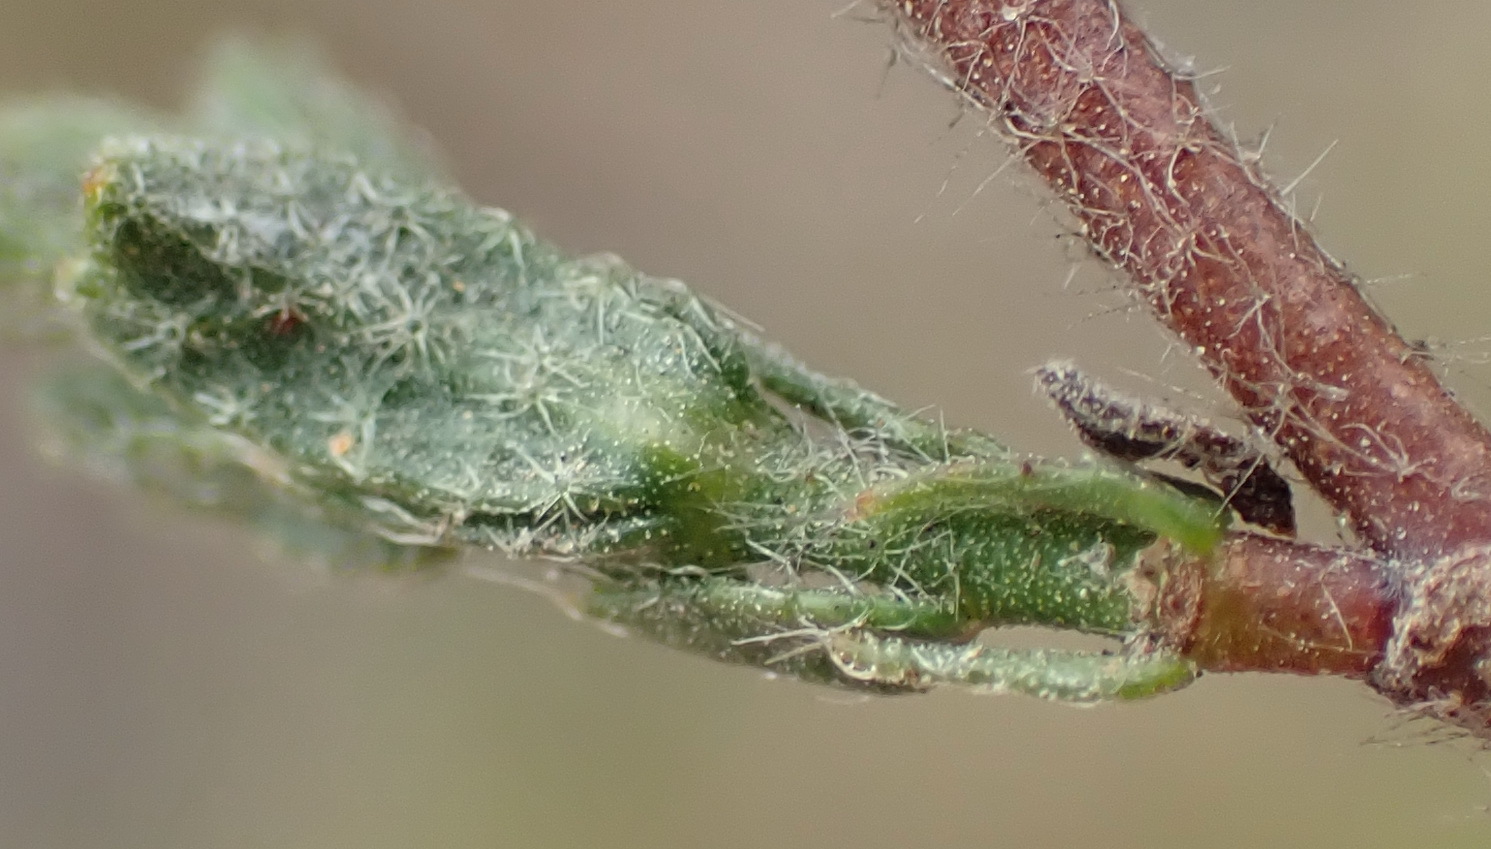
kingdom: Plantae
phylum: Tracheophyta
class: Magnoliopsida
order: Malvales
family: Malvaceae
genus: Hermannia
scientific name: Hermannia stipulacea
